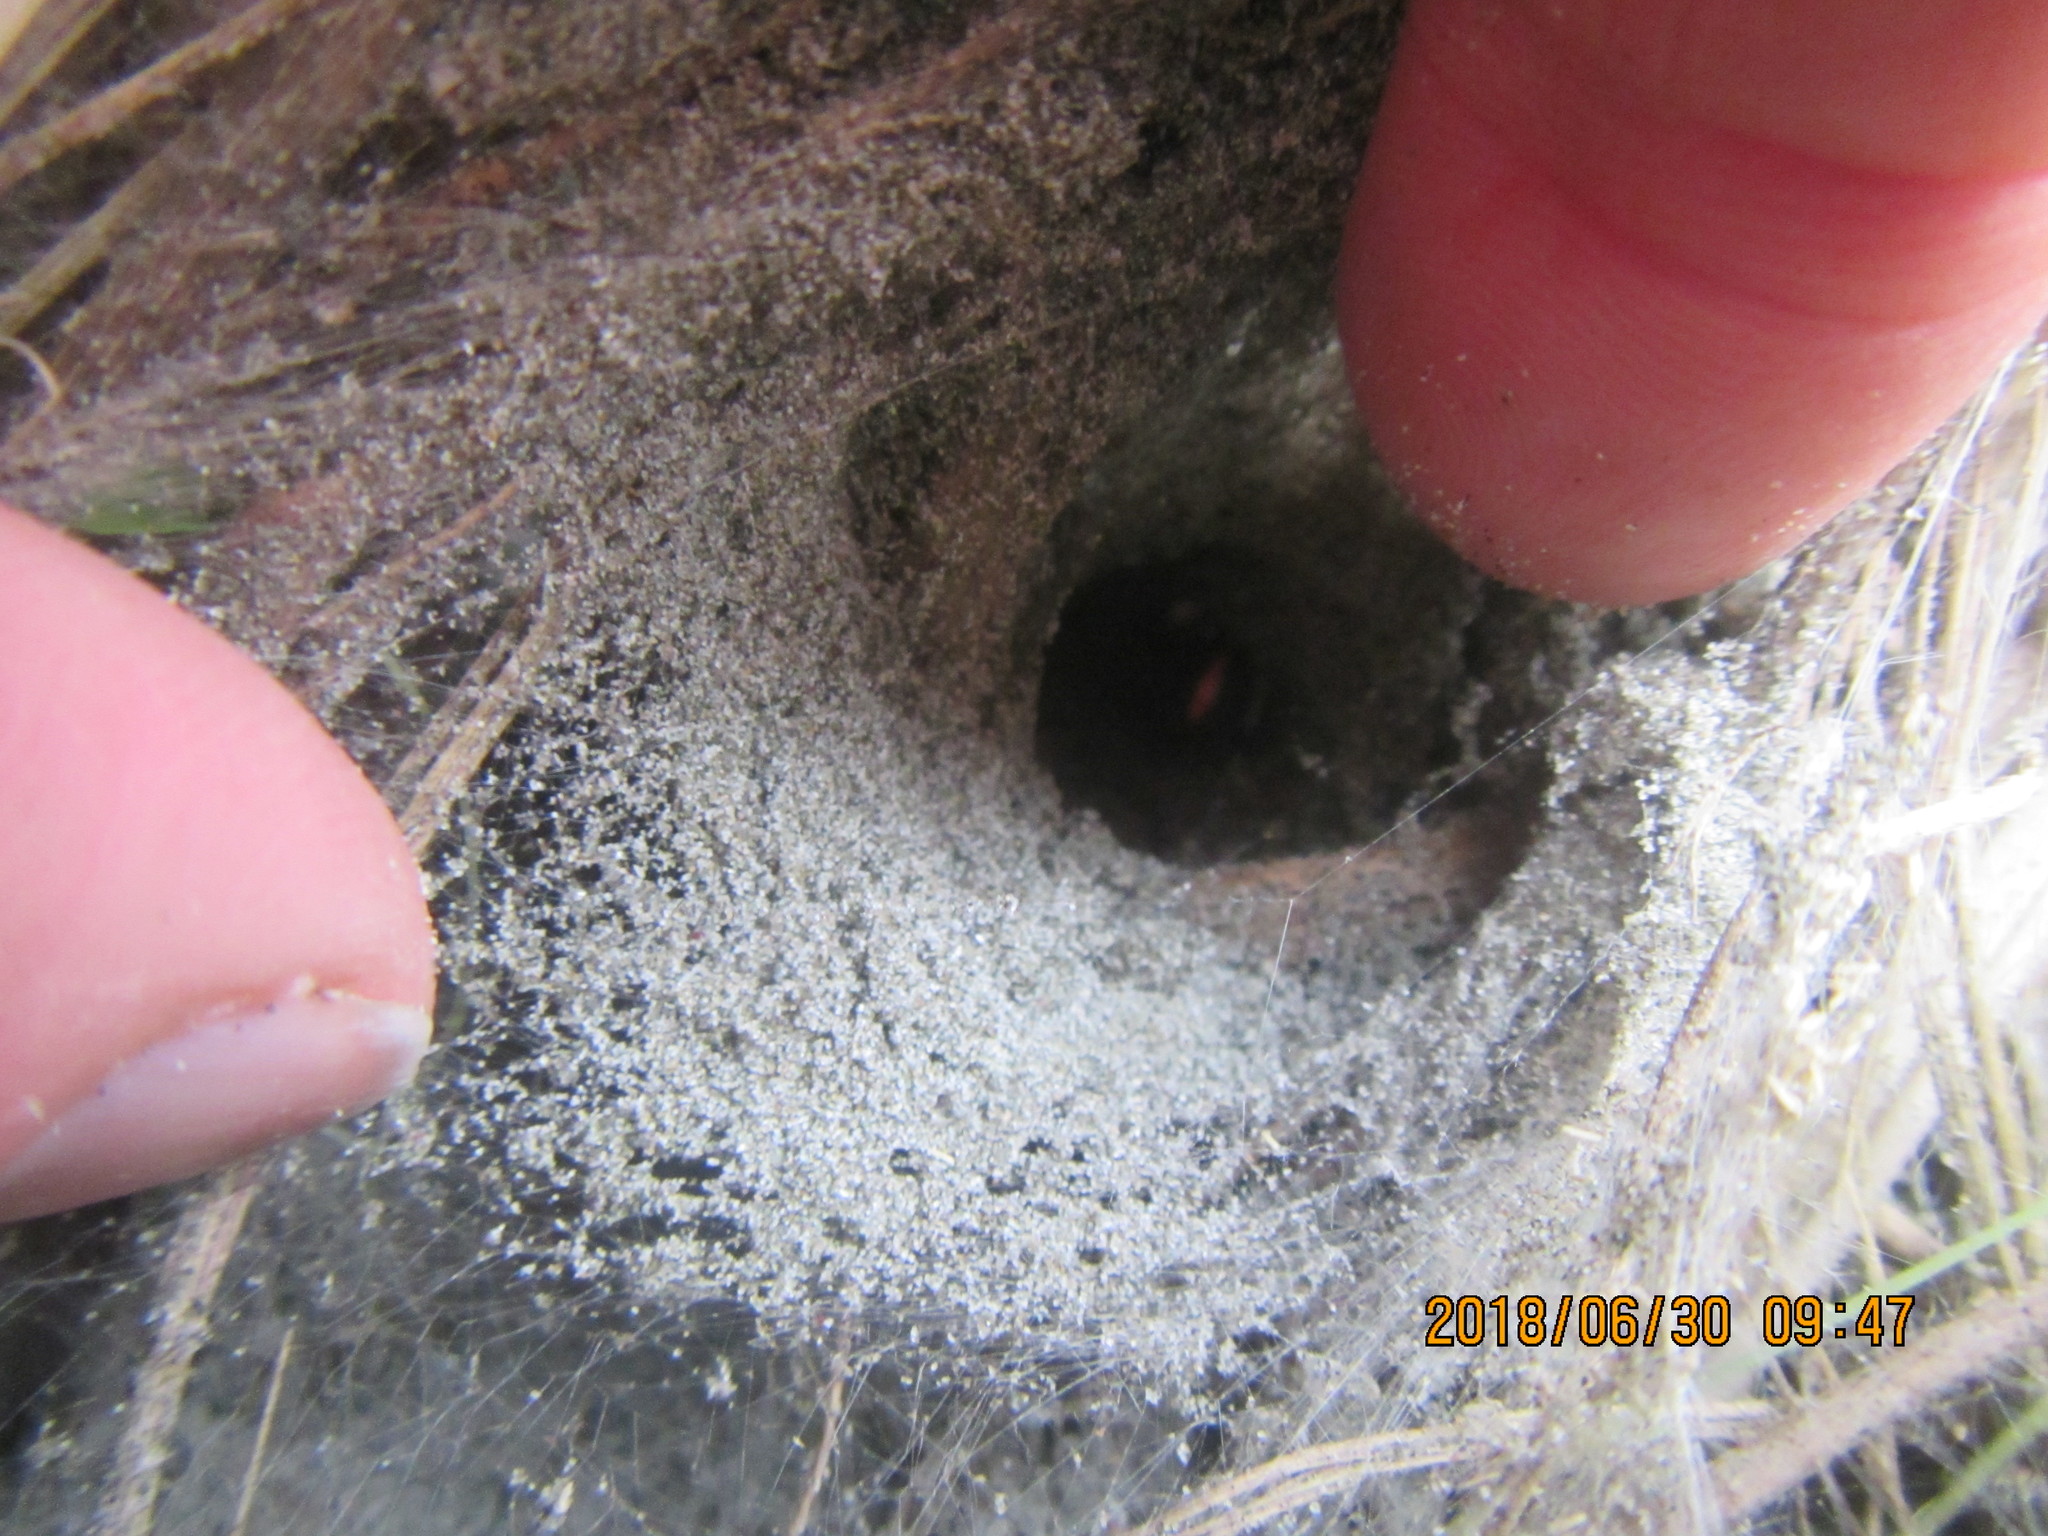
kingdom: Animalia
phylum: Arthropoda
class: Arachnida
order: Araneae
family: Theridiidae
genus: Latrodectus
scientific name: Latrodectus katipo
